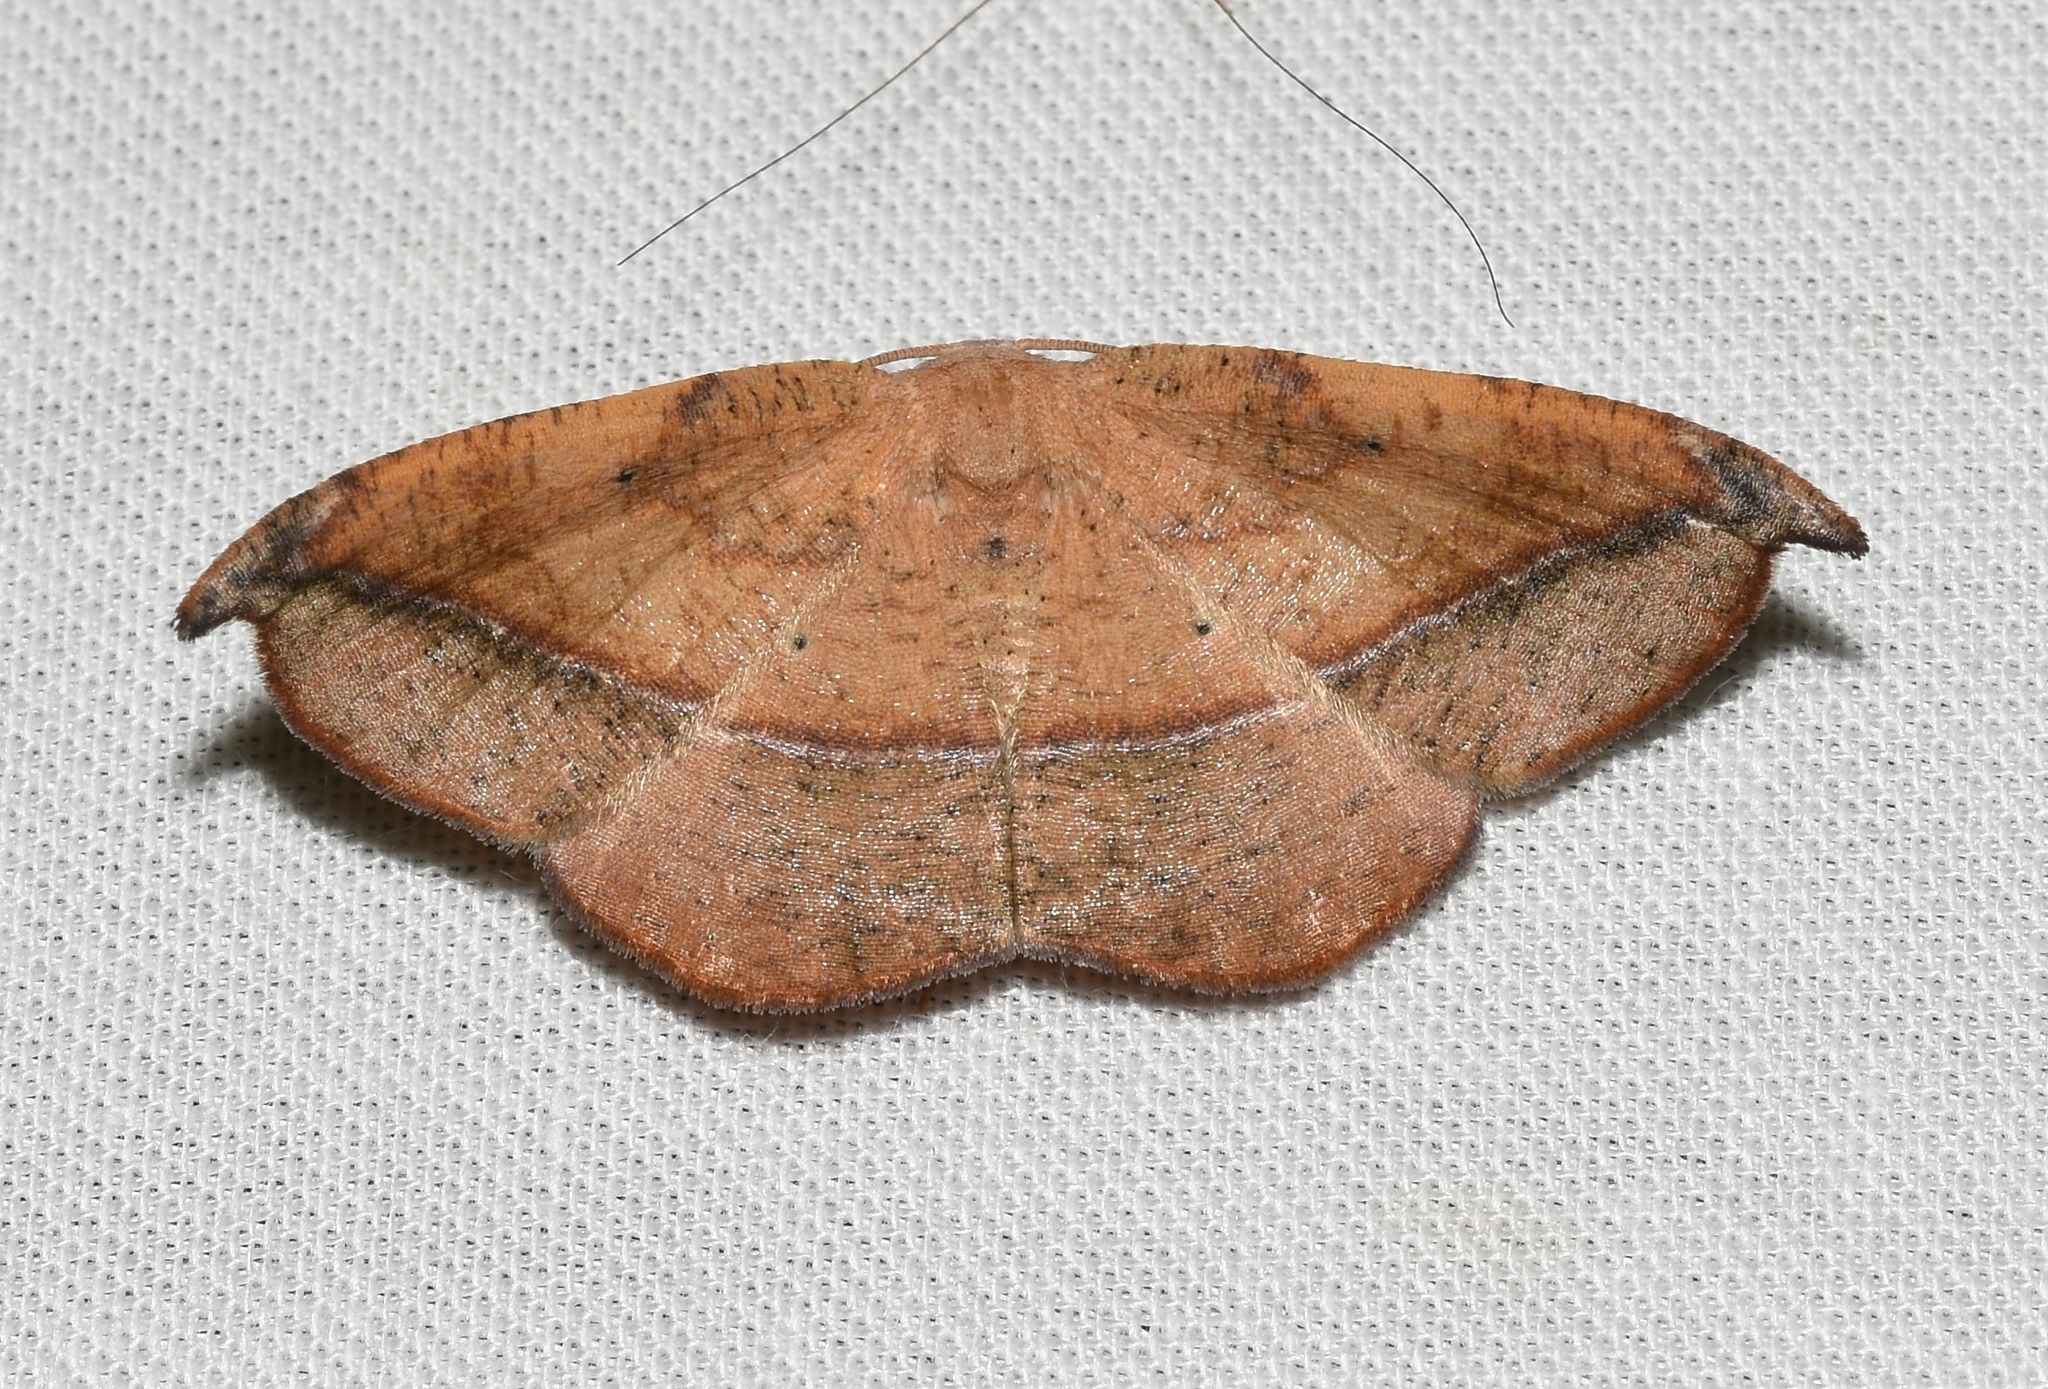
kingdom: Animalia
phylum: Arthropoda
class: Insecta
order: Lepidoptera
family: Geometridae
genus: Patalene
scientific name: Patalene olyzonaria
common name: Juniper geometer moth
